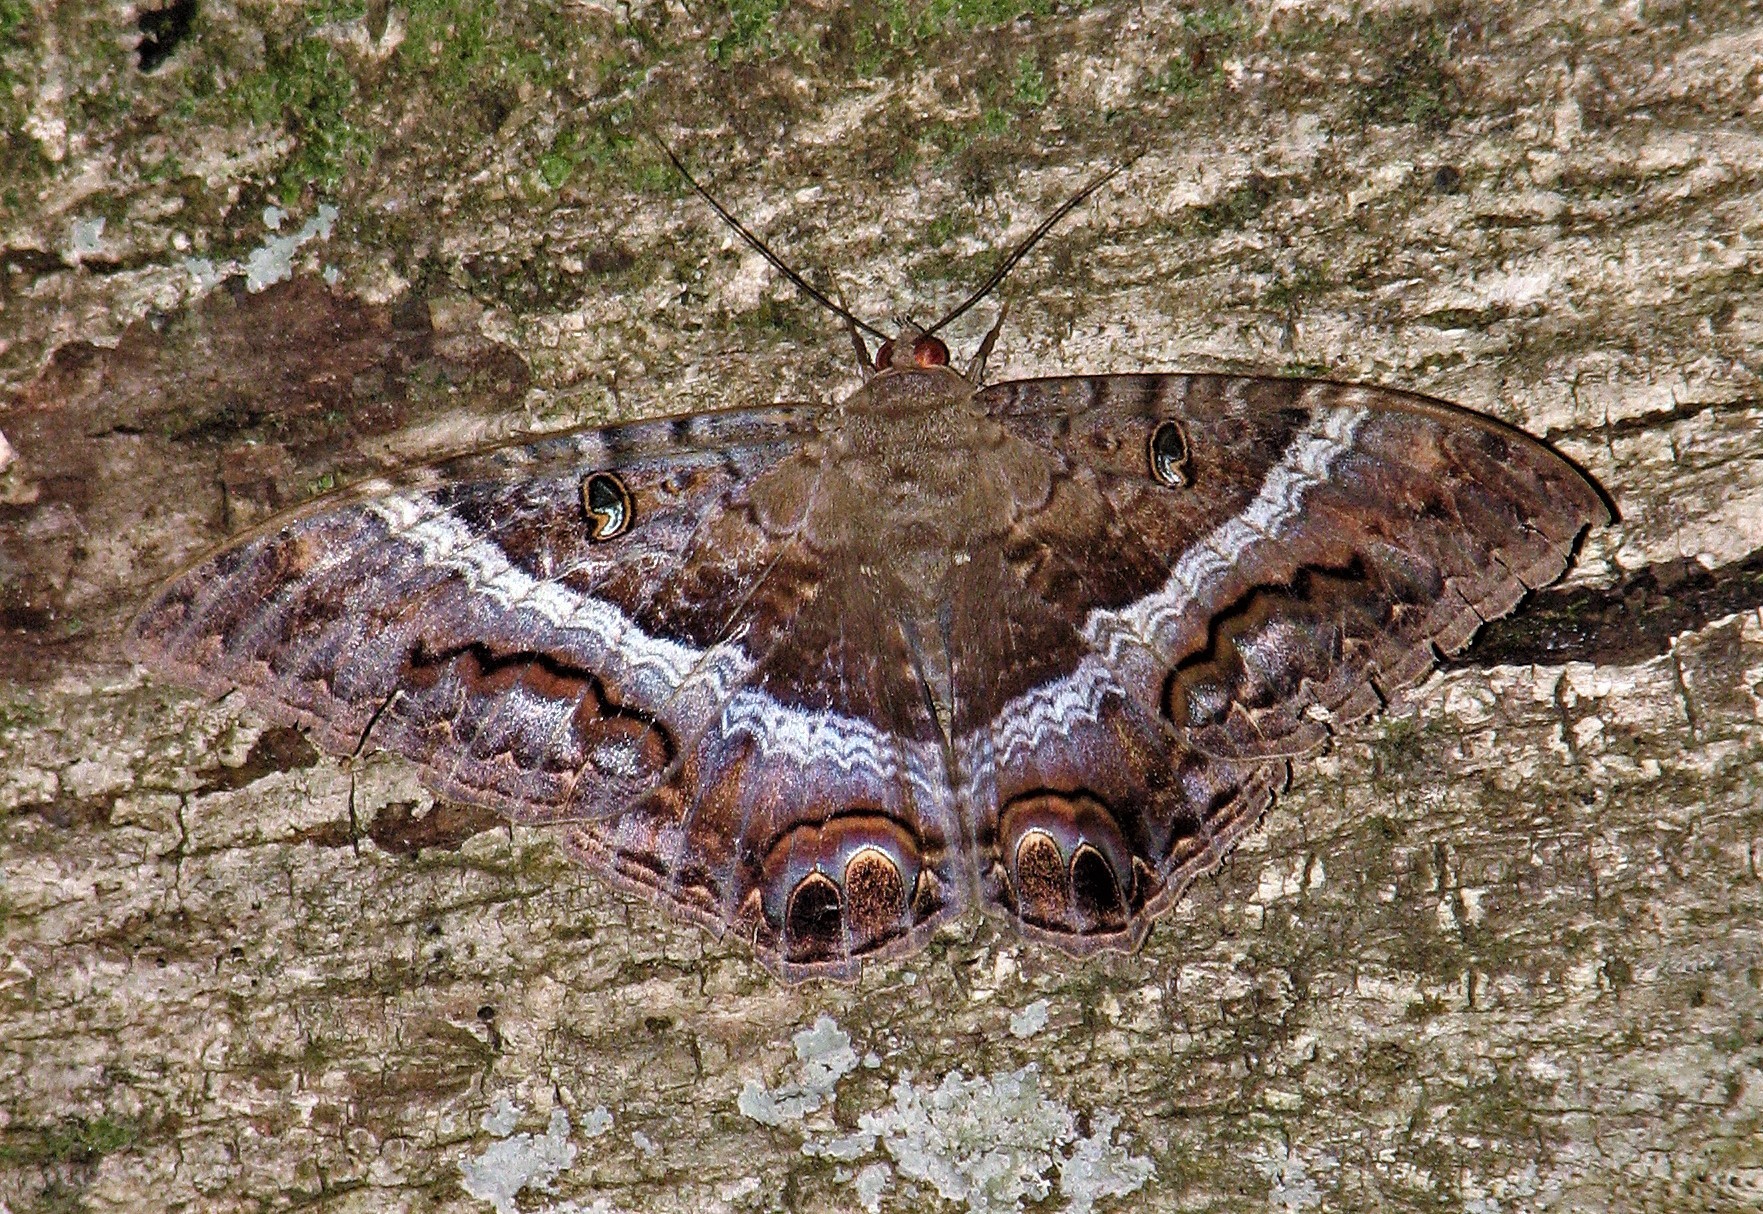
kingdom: Animalia
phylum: Arthropoda
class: Insecta
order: Lepidoptera
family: Erebidae
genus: Ascalapha
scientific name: Ascalapha odorata
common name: Black witch
